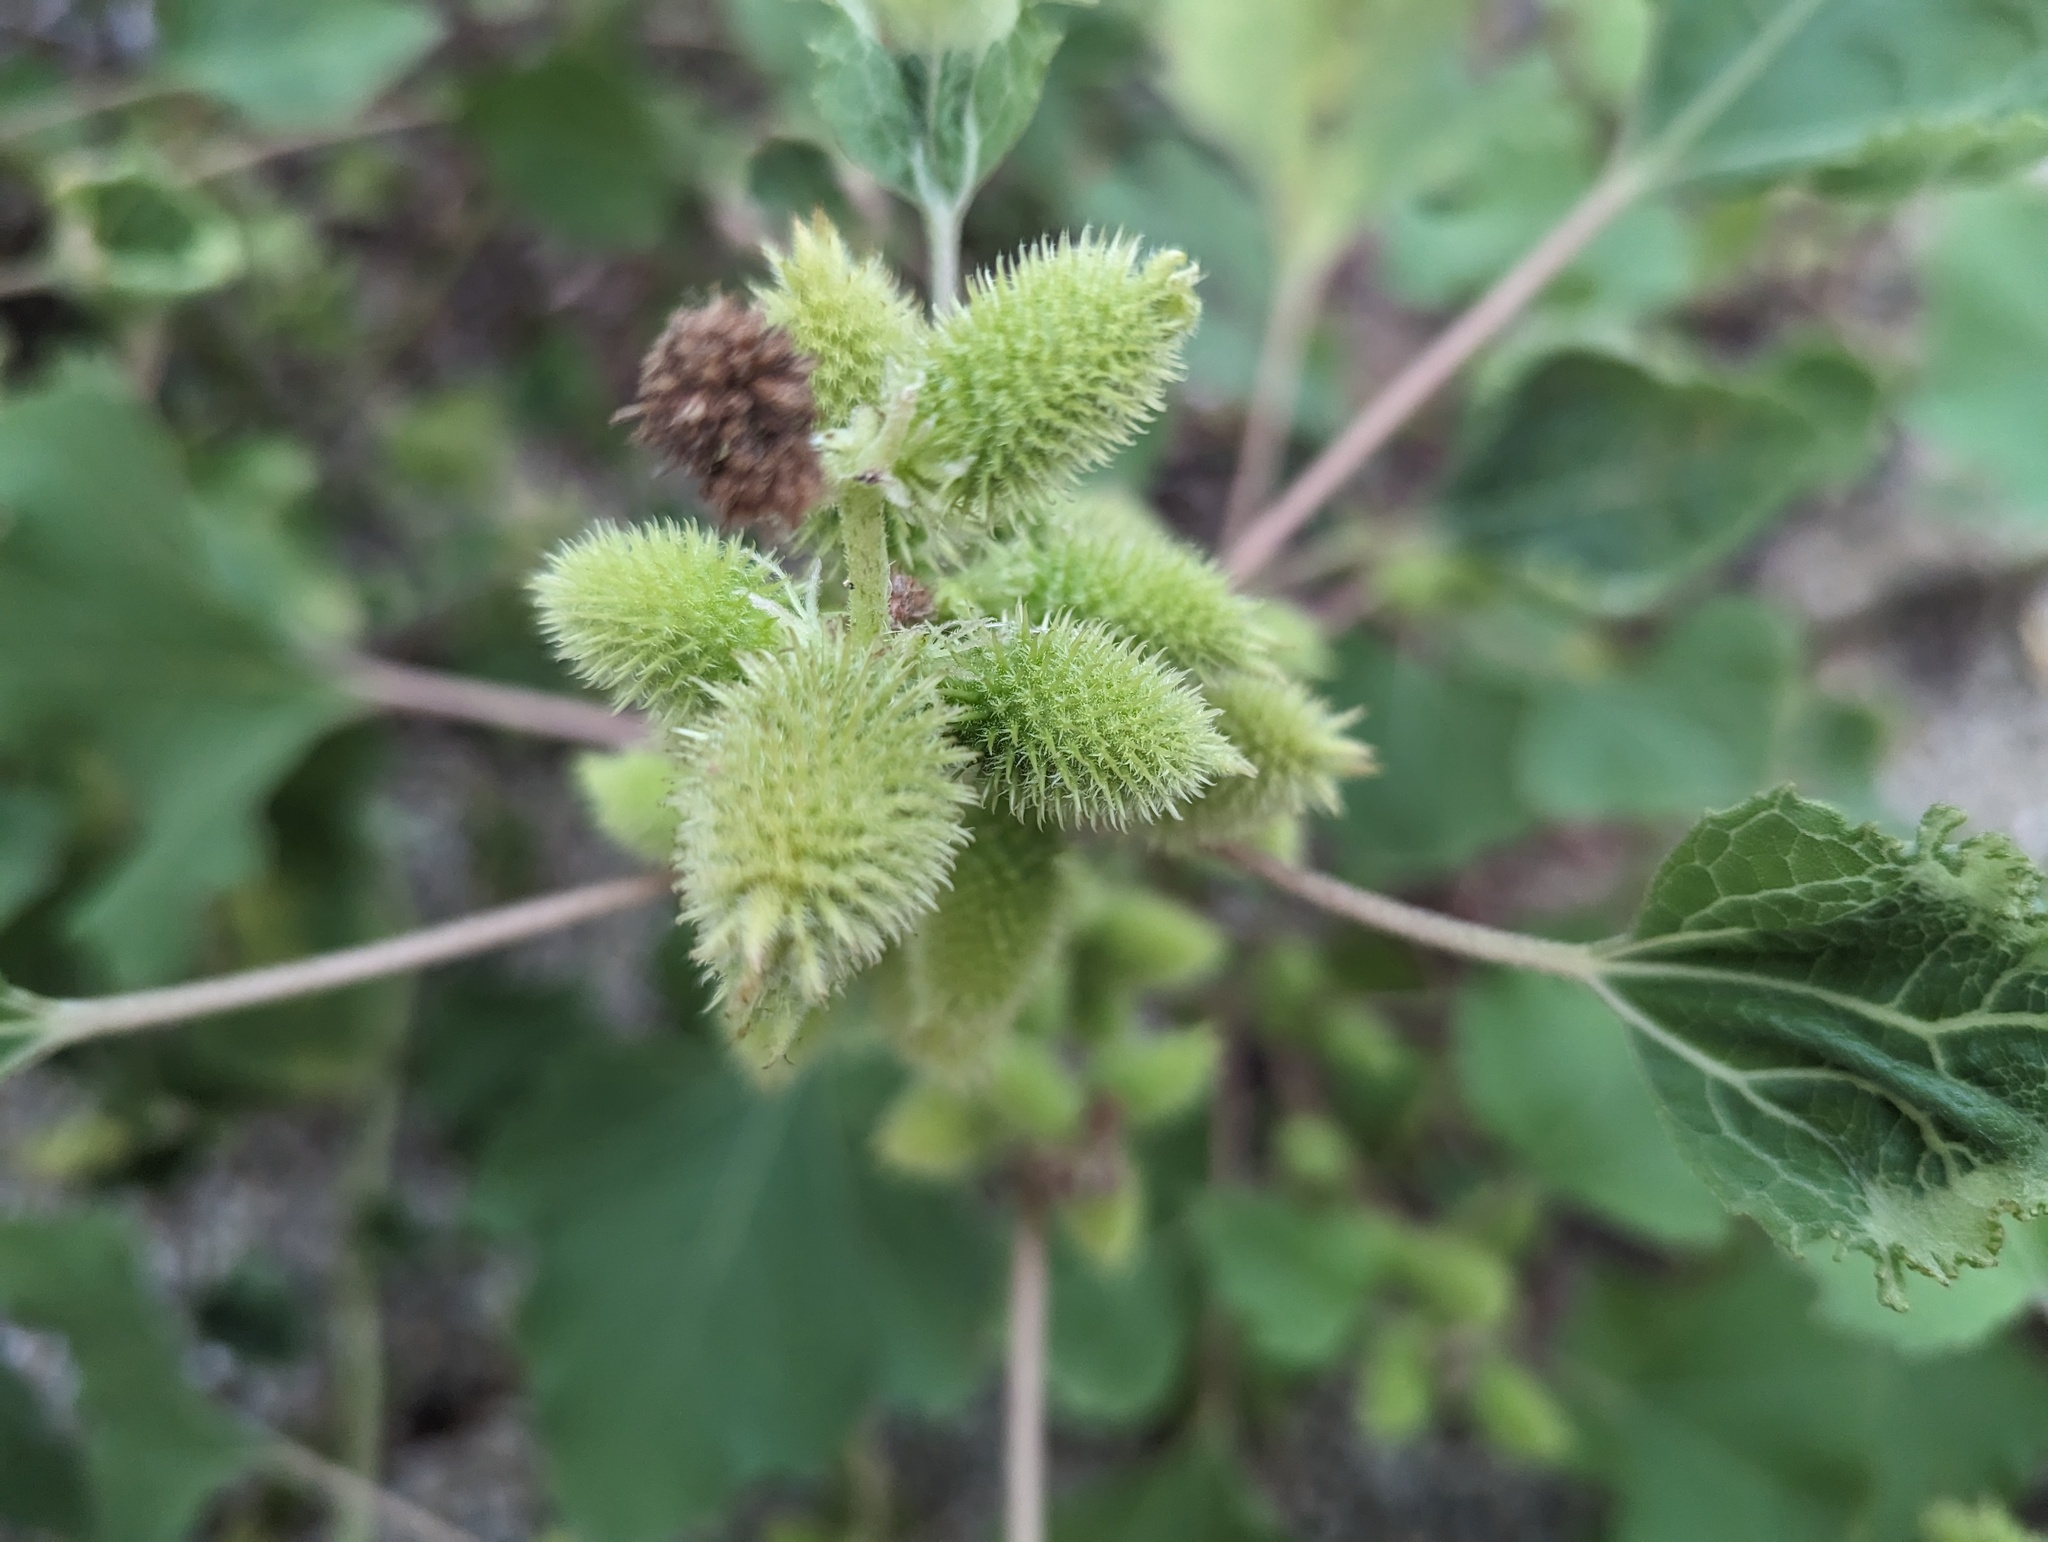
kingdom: Plantae
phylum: Tracheophyta
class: Magnoliopsida
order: Asterales
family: Asteraceae
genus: Xanthium
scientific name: Xanthium orientale
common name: Californian burr
